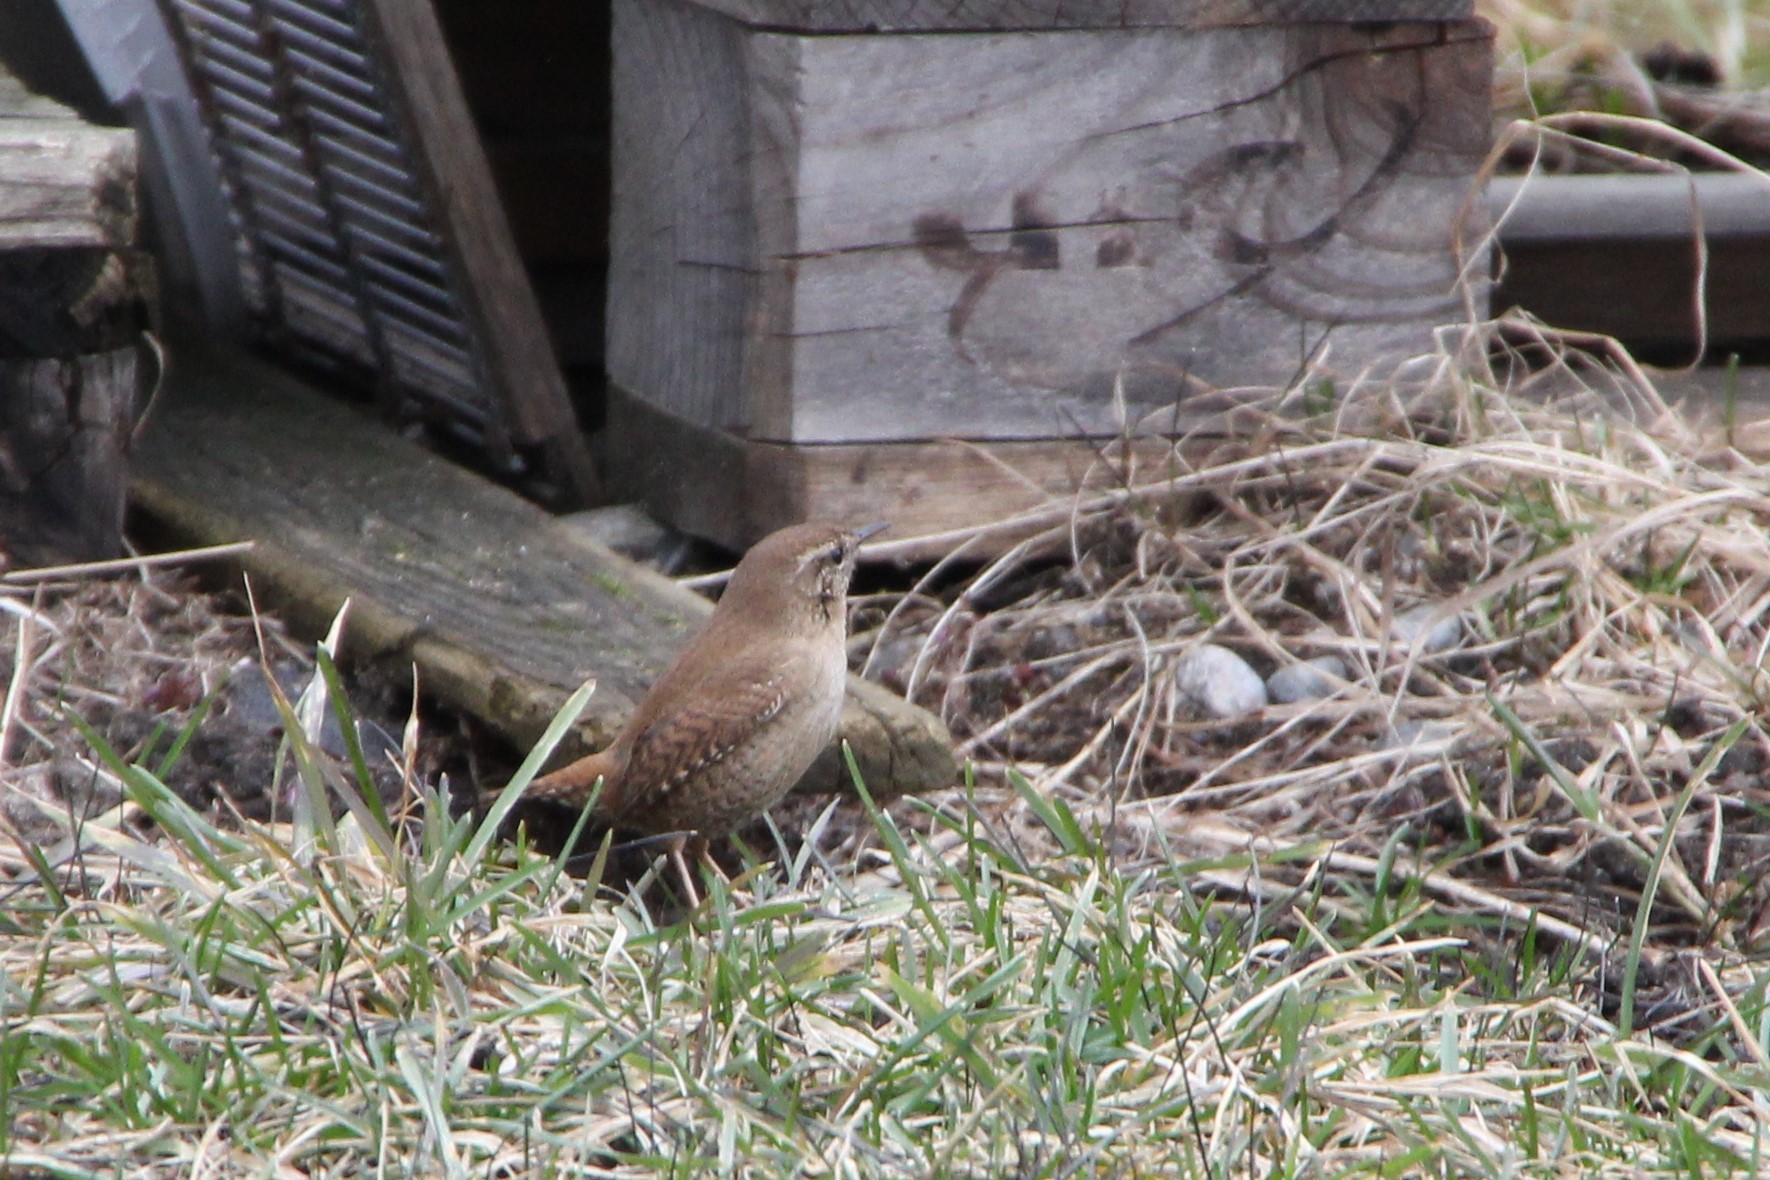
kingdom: Animalia
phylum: Chordata
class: Aves
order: Passeriformes
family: Troglodytidae
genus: Troglodytes
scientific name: Troglodytes troglodytes
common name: Eurasian wren
